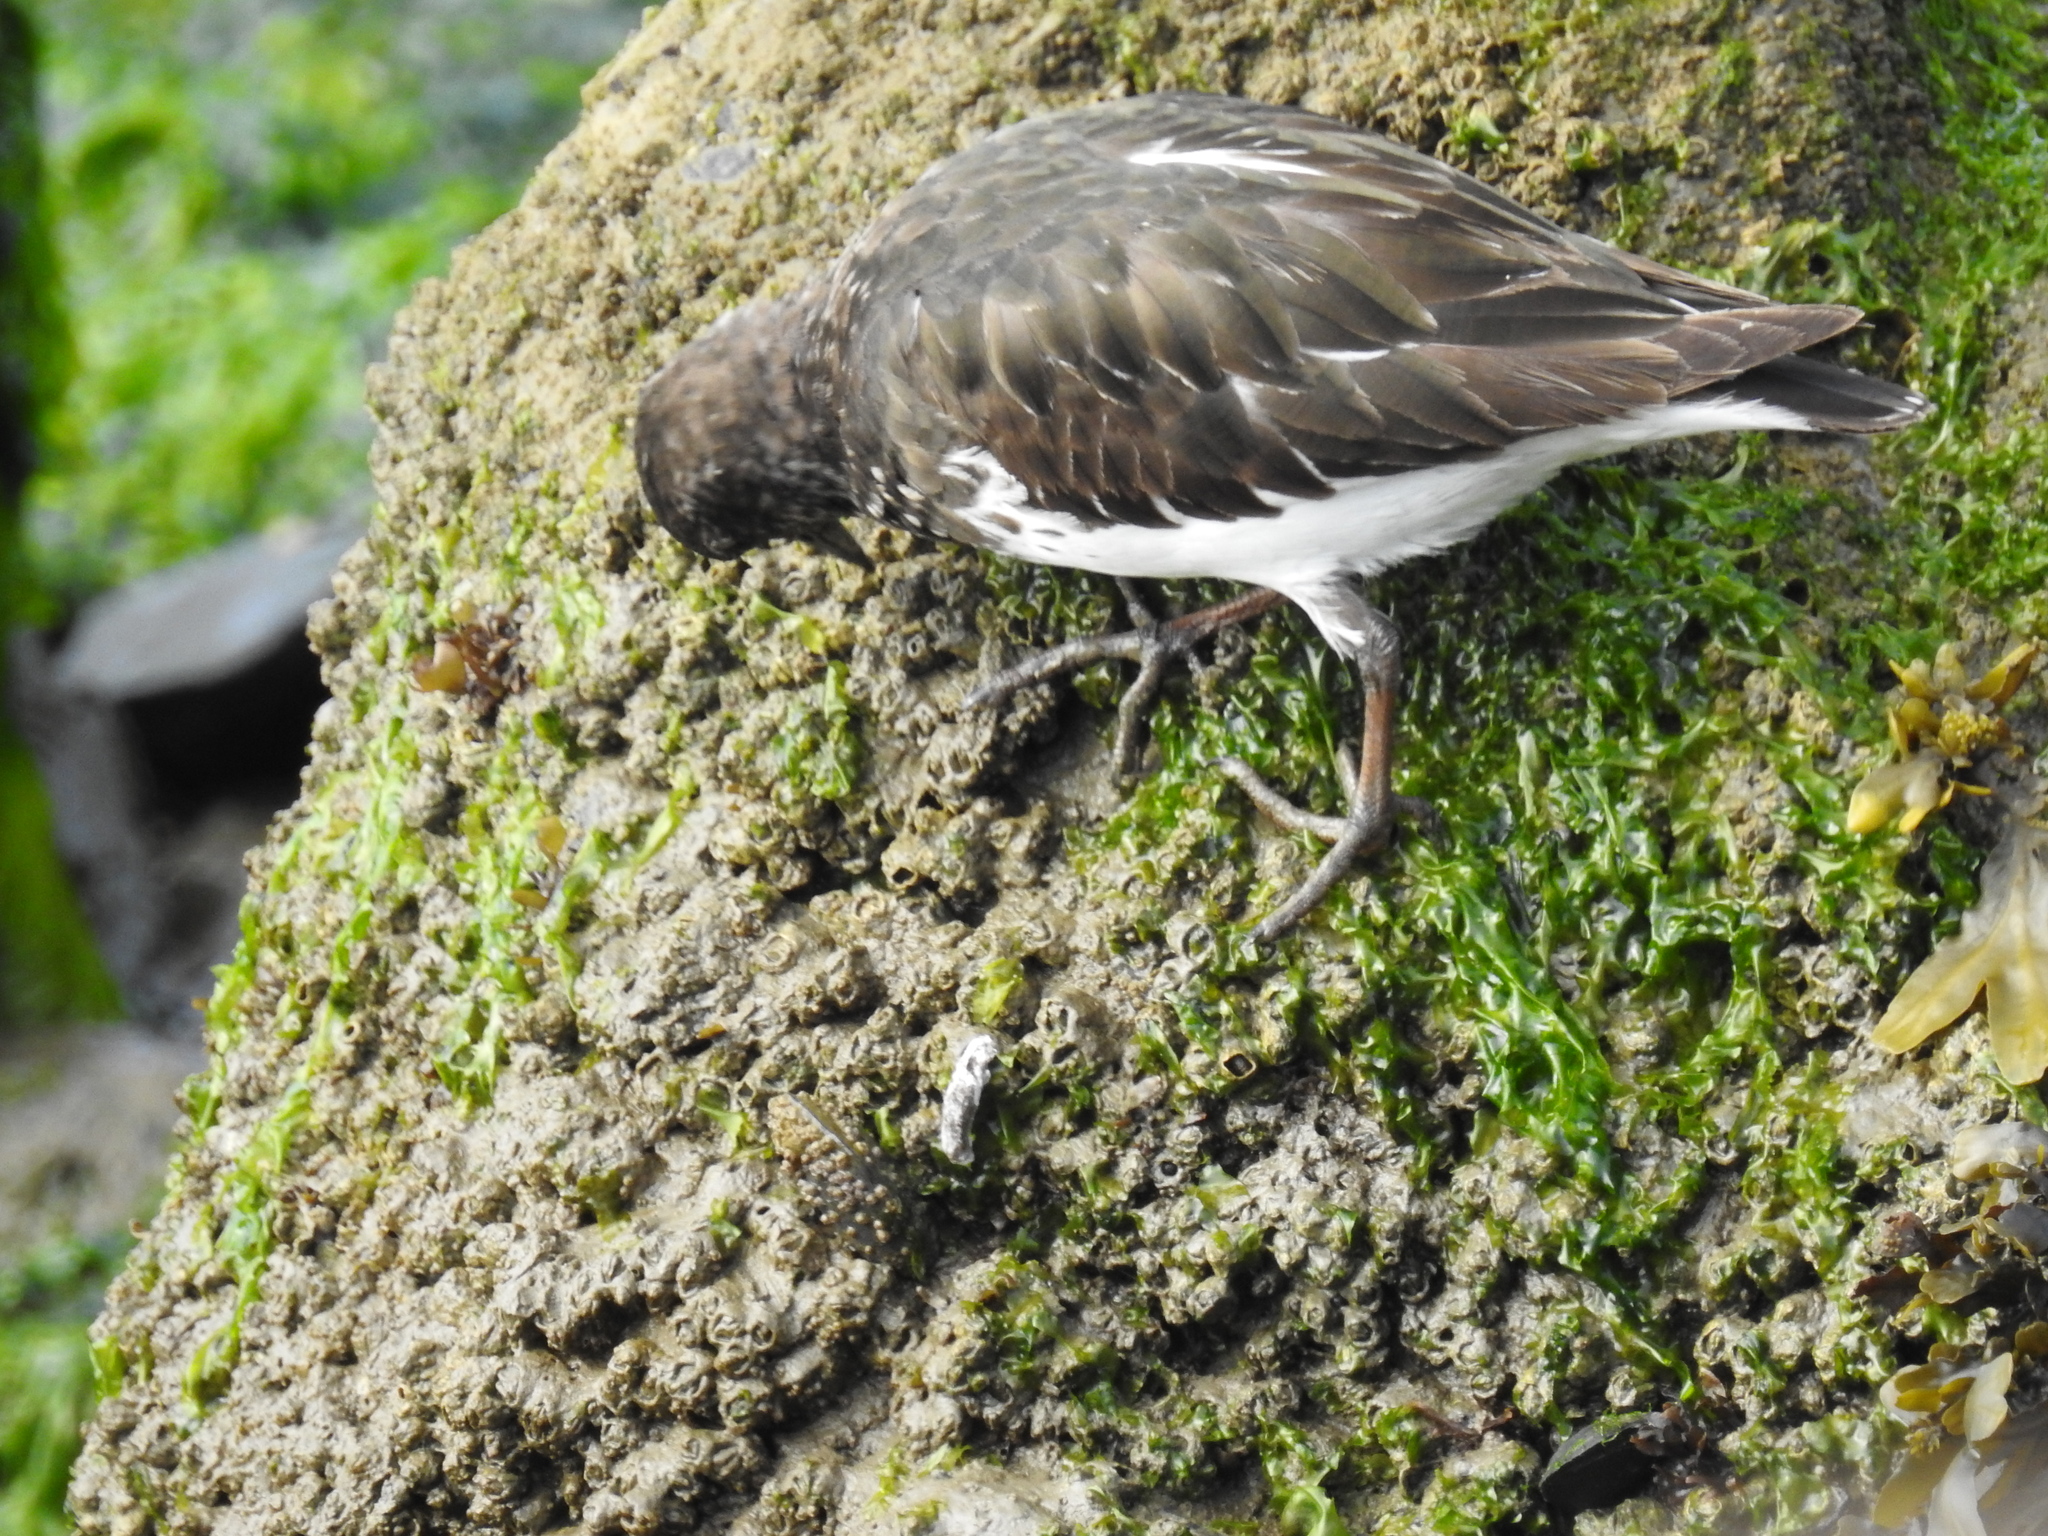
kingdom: Animalia
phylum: Chordata
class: Aves
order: Charadriiformes
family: Scolopacidae
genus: Arenaria
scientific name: Arenaria melanocephala
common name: Black turnstone
